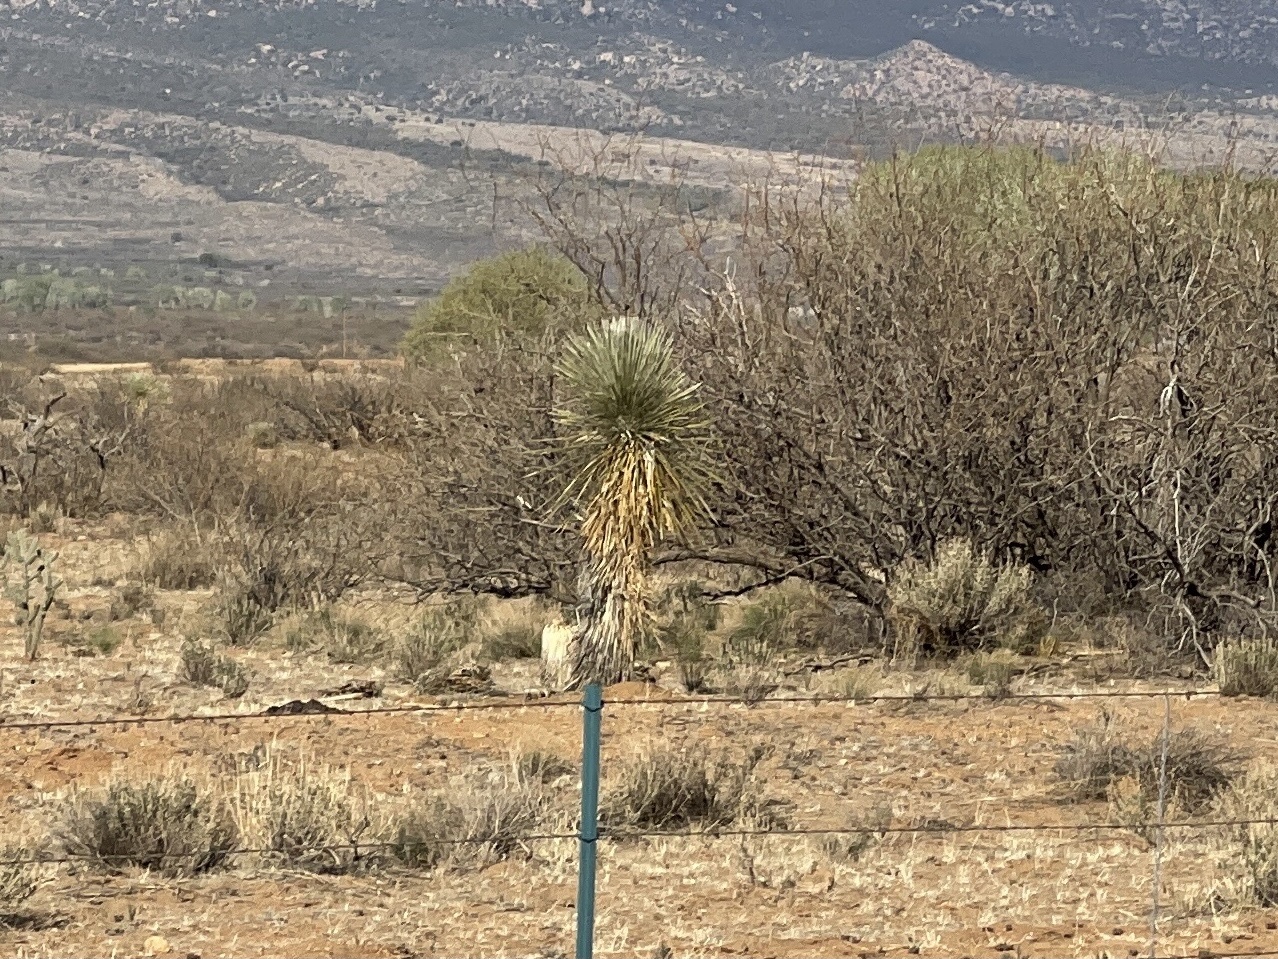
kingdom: Plantae
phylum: Tracheophyta
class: Liliopsida
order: Asparagales
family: Asparagaceae
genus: Yucca
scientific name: Yucca elata
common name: Palmella
